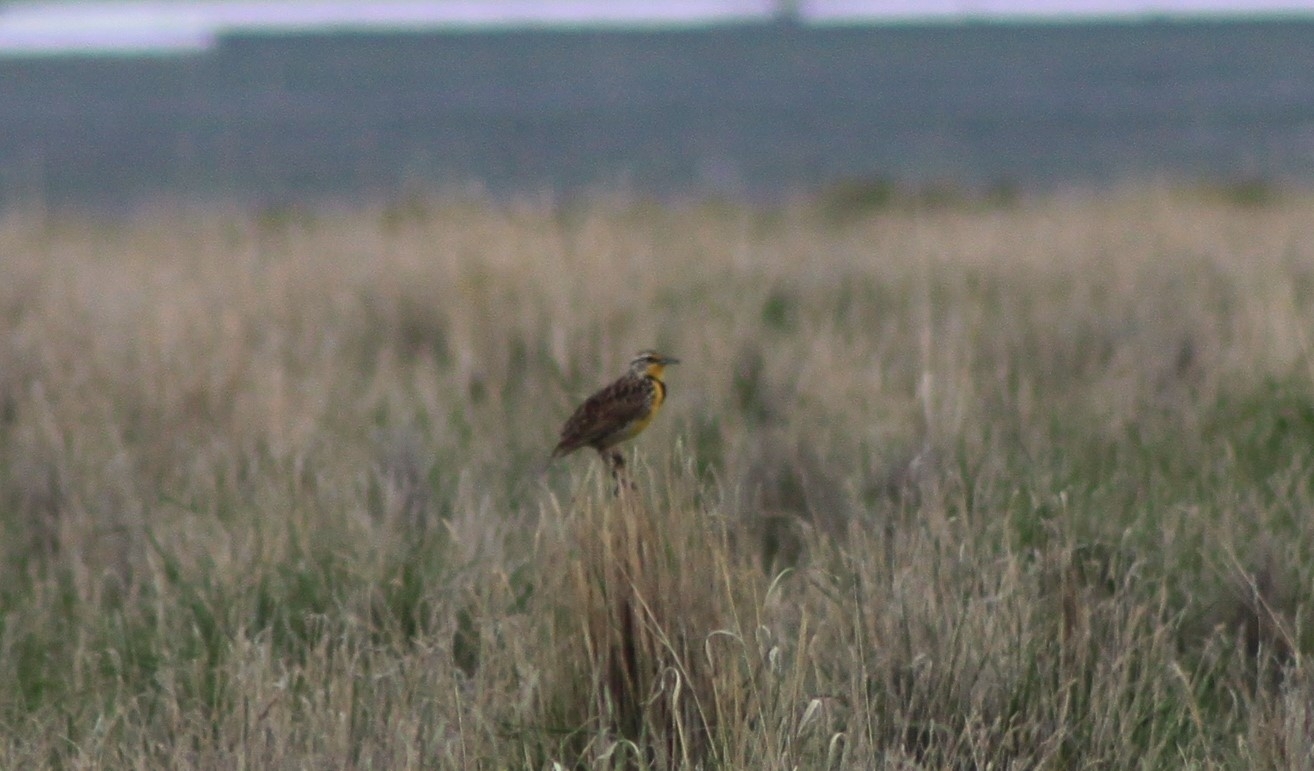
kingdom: Animalia
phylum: Chordata
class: Aves
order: Passeriformes
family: Icteridae
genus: Sturnella
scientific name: Sturnella neglecta
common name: Western meadowlark
